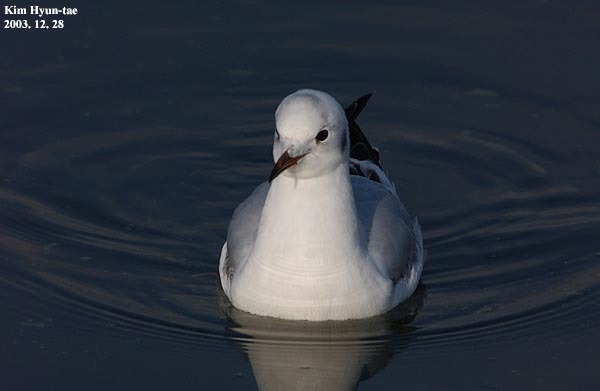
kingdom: Animalia
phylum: Chordata
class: Aves
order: Charadriiformes
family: Laridae
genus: Chroicocephalus
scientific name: Chroicocephalus ridibundus
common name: Black-headed gull
